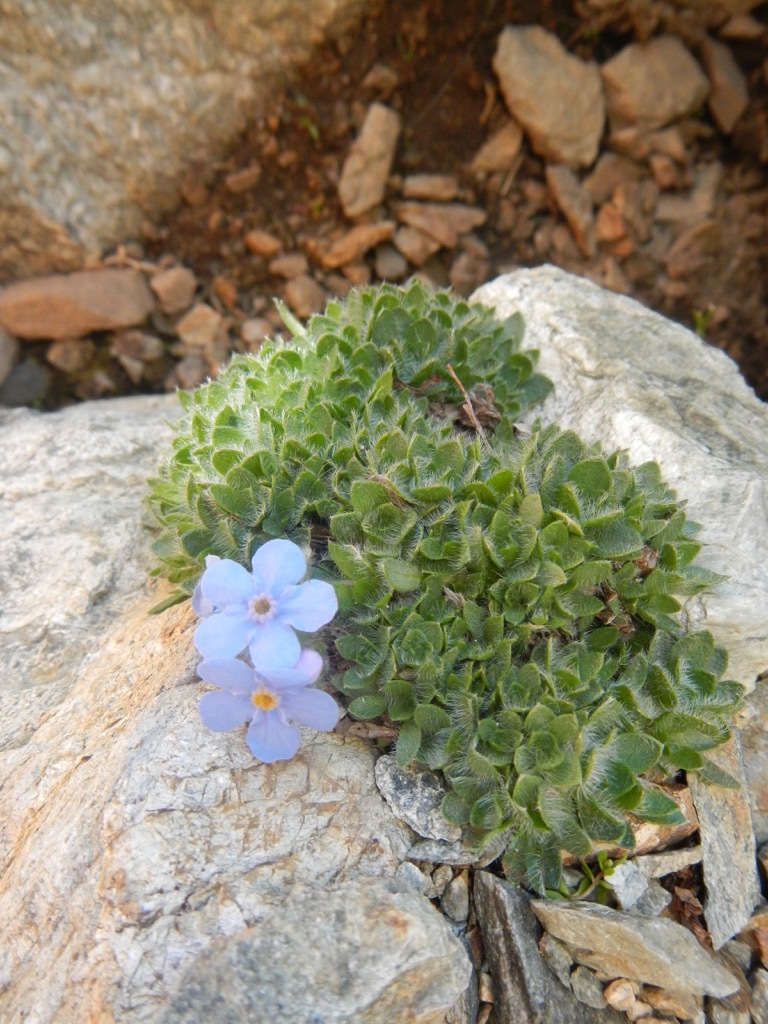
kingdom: Plantae
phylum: Tracheophyta
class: Magnoliopsida
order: Boraginales
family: Boraginaceae
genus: Eritrichium
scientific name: Eritrichium nanum
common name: King-of-the-alps
